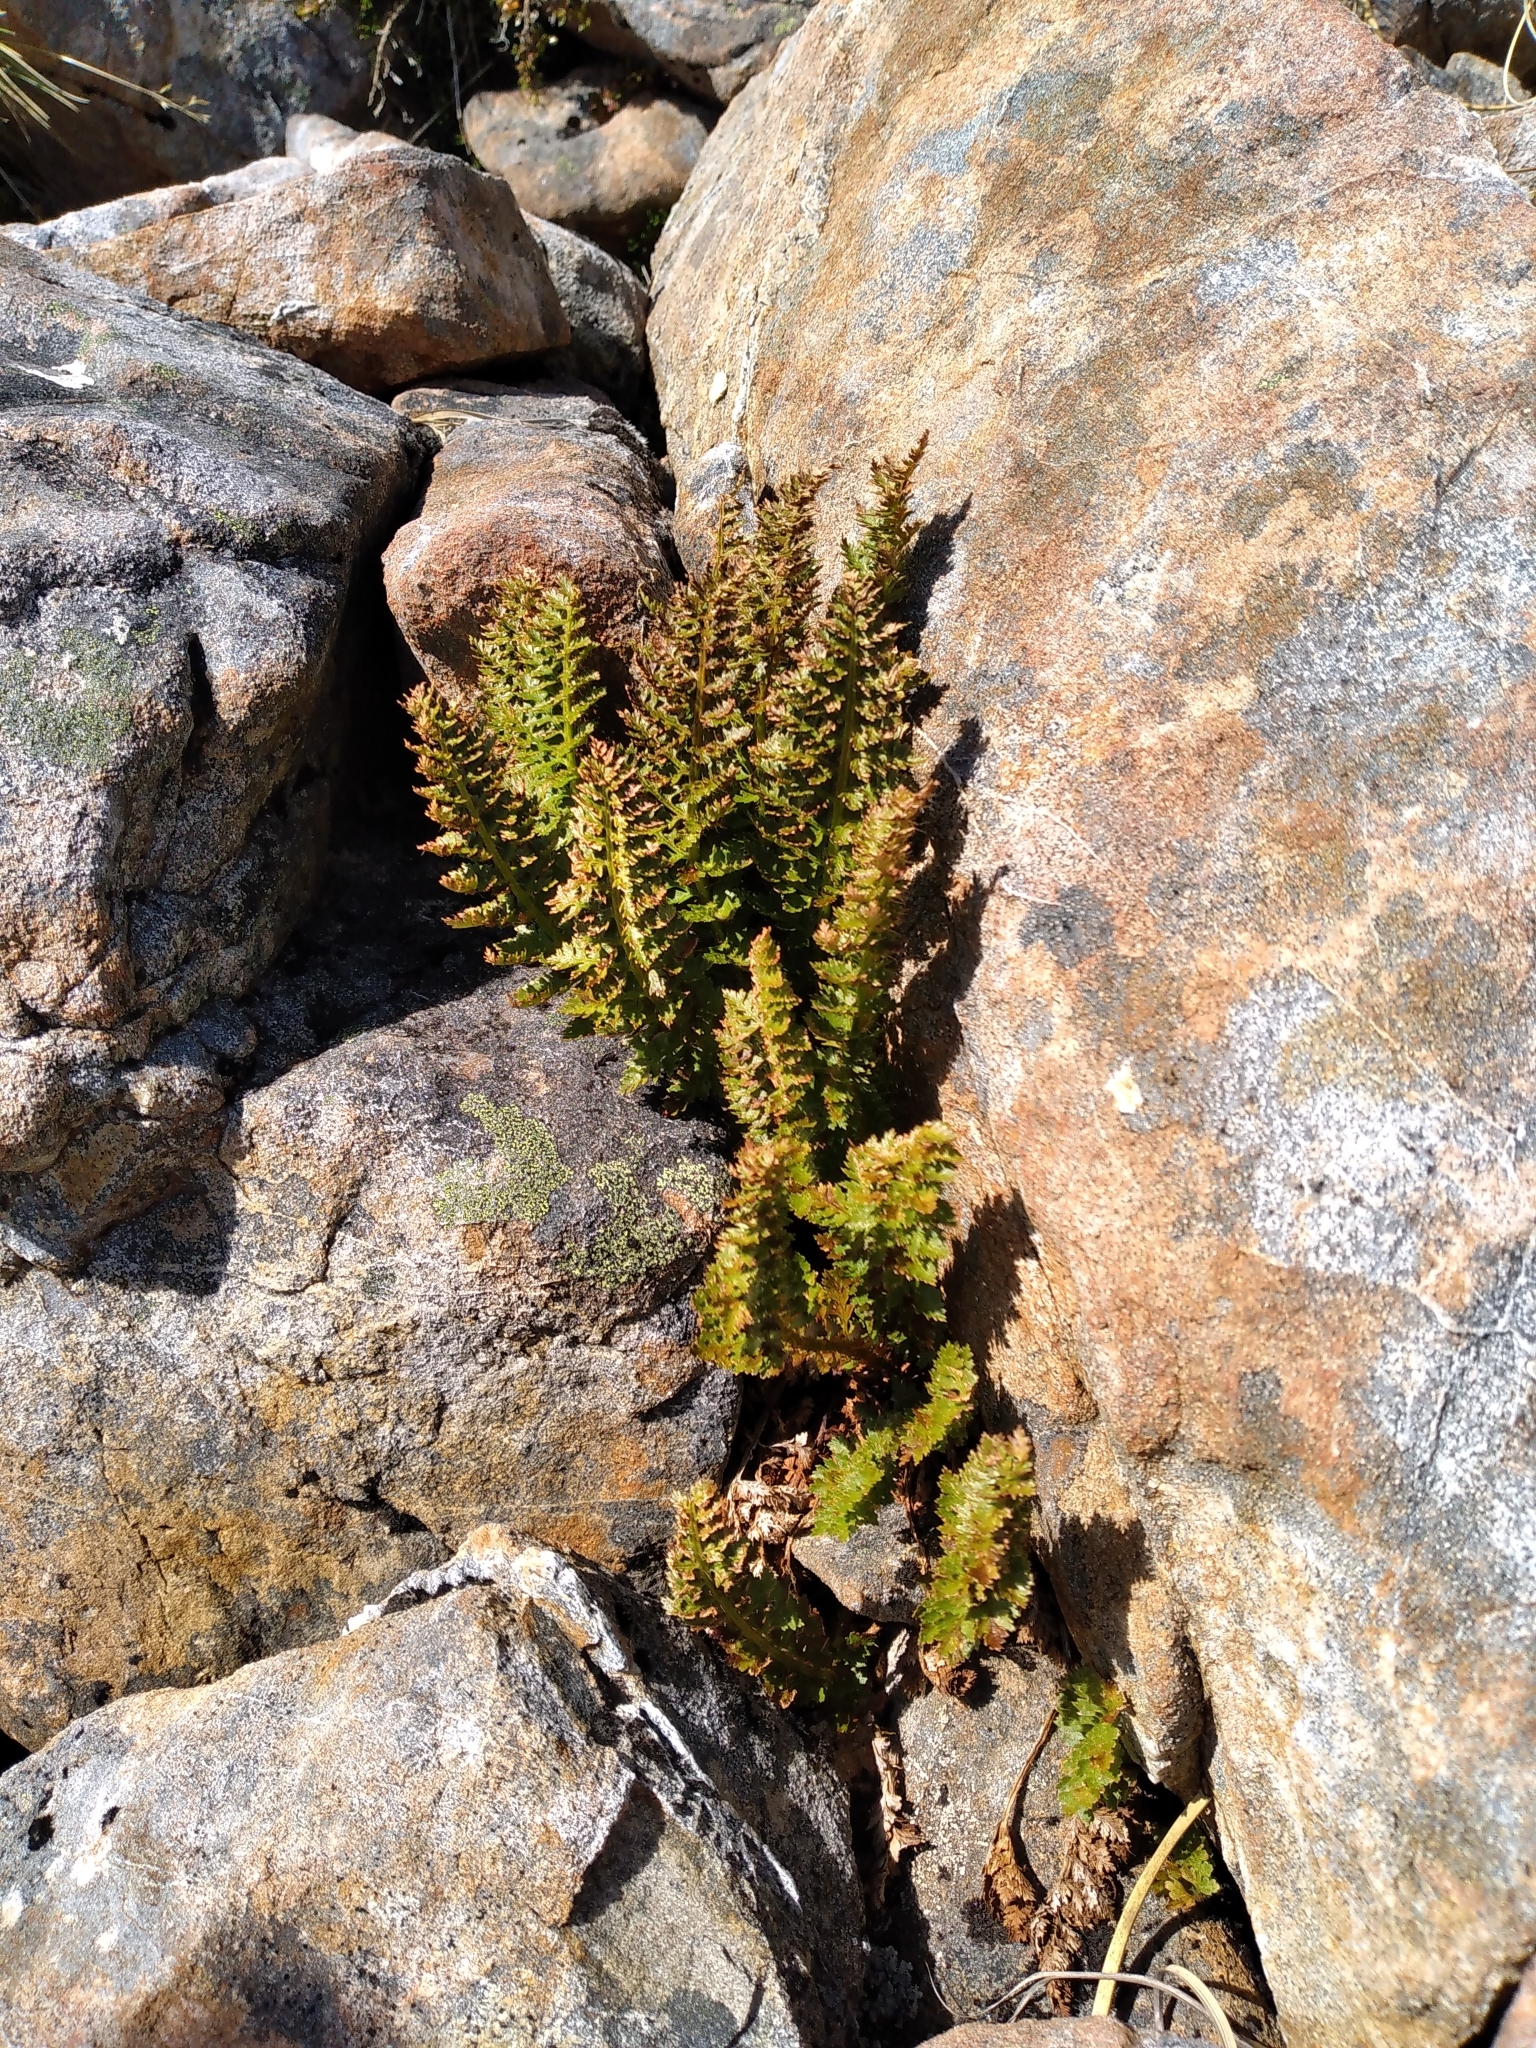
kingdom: Plantae
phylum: Tracheophyta
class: Polypodiopsida
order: Polypodiales
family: Dryopteridaceae
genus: Polystichum
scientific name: Polystichum cystostegia
